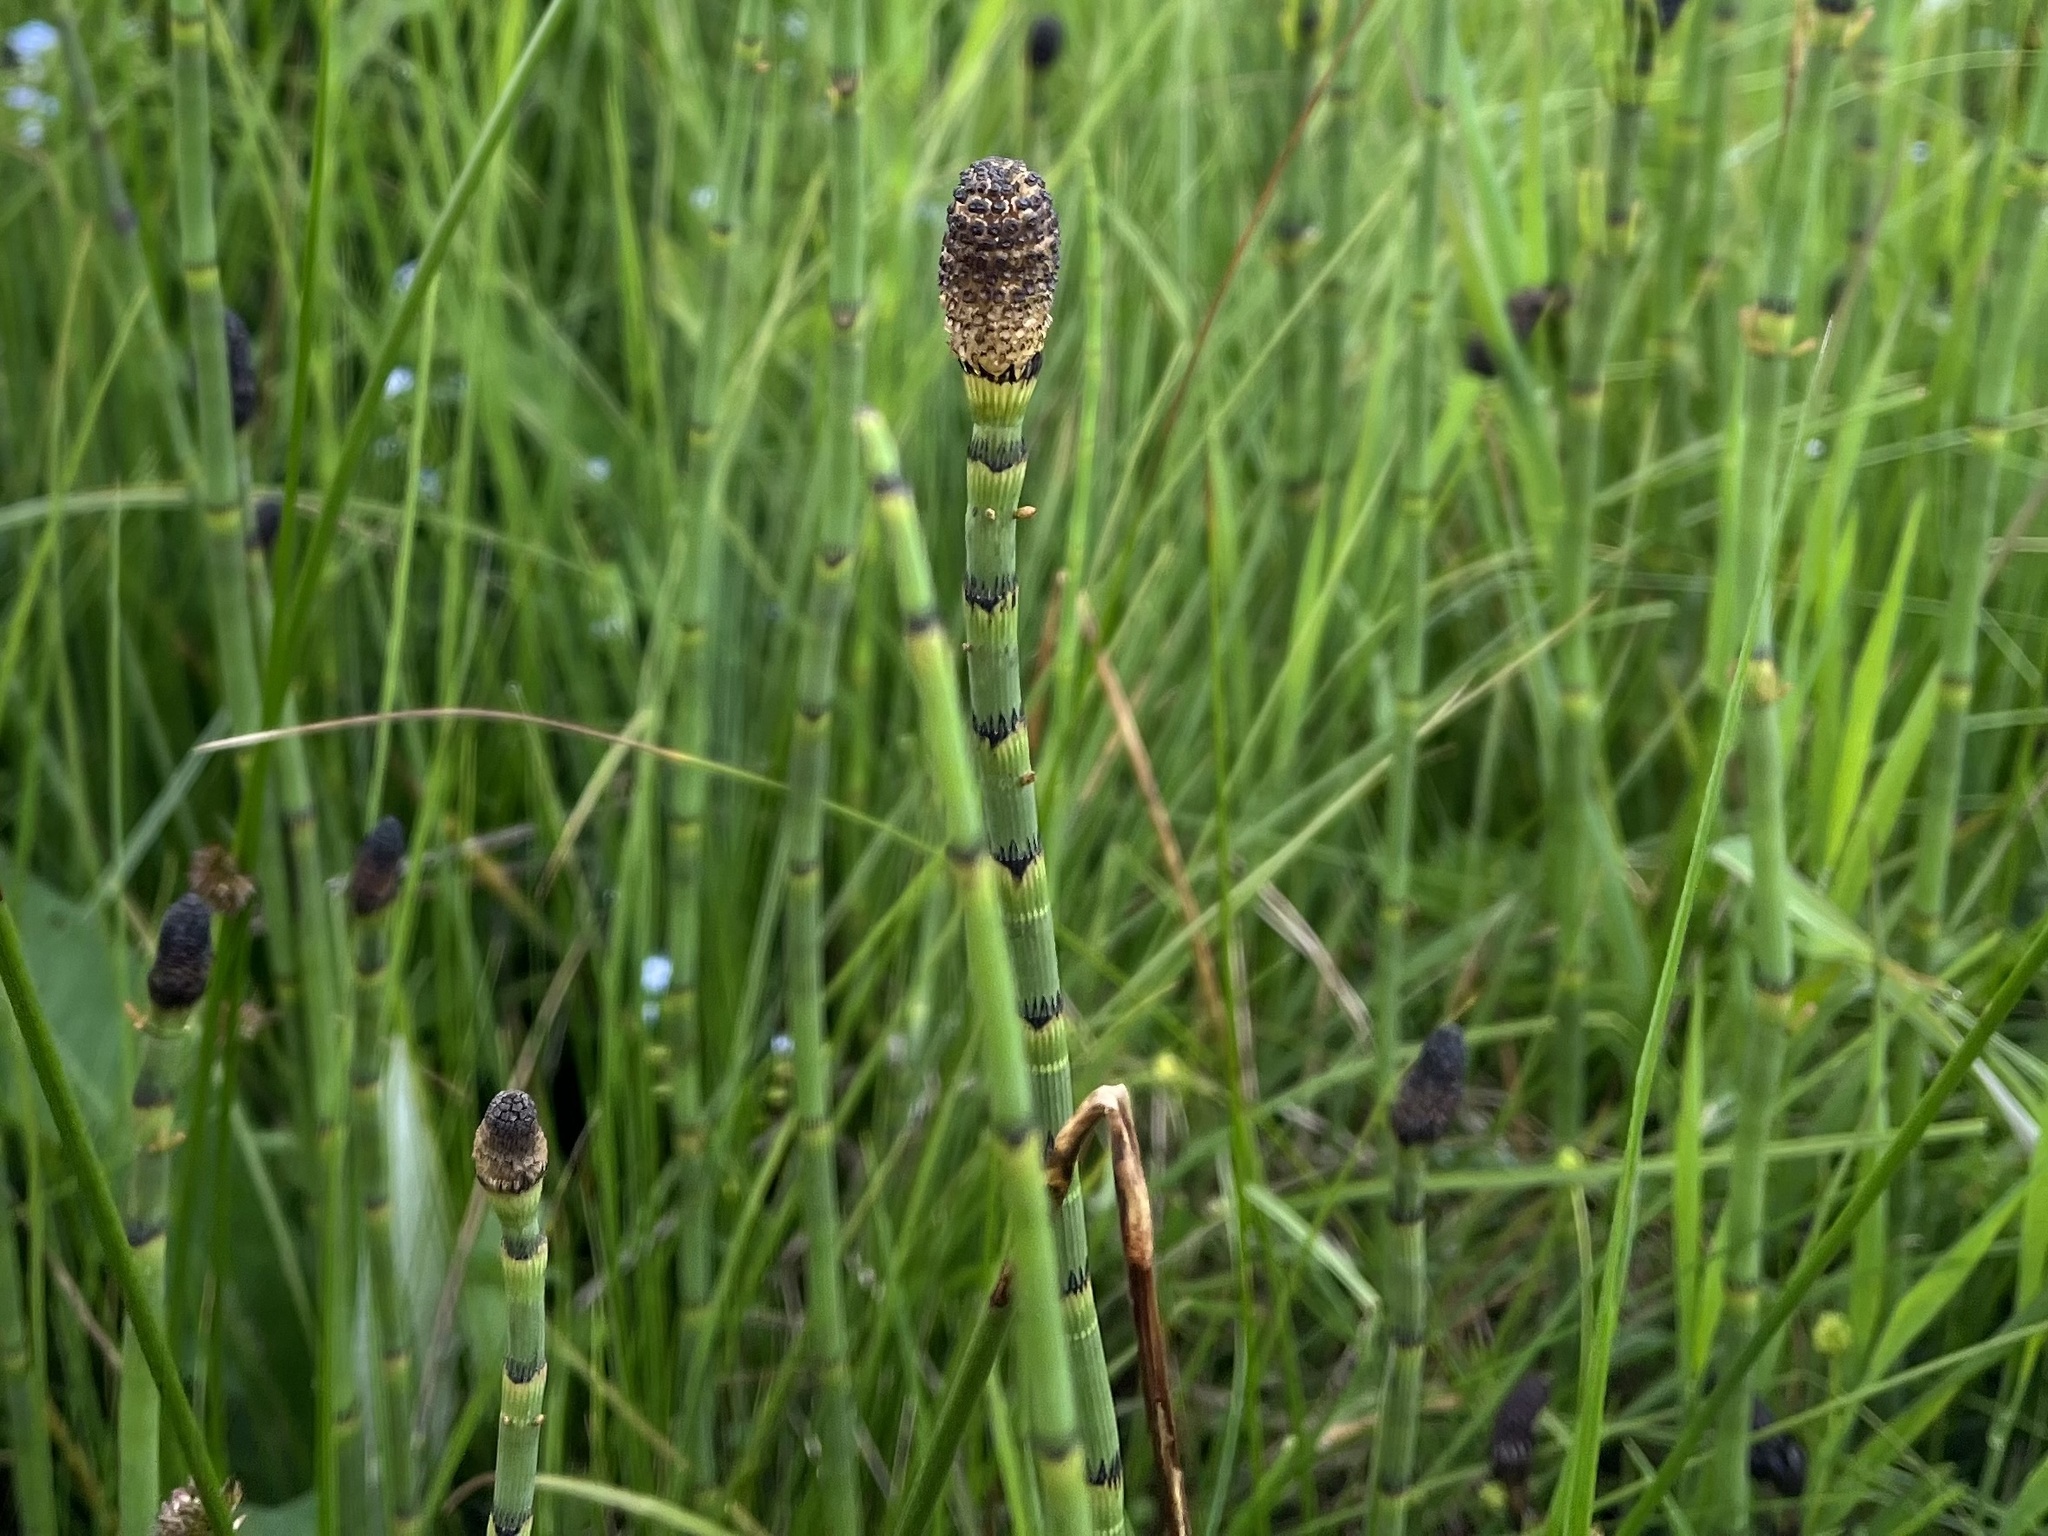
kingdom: Plantae
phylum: Tracheophyta
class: Polypodiopsida
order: Equisetales
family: Equisetaceae
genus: Equisetum
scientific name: Equisetum fluviatile
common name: Water horsetail
